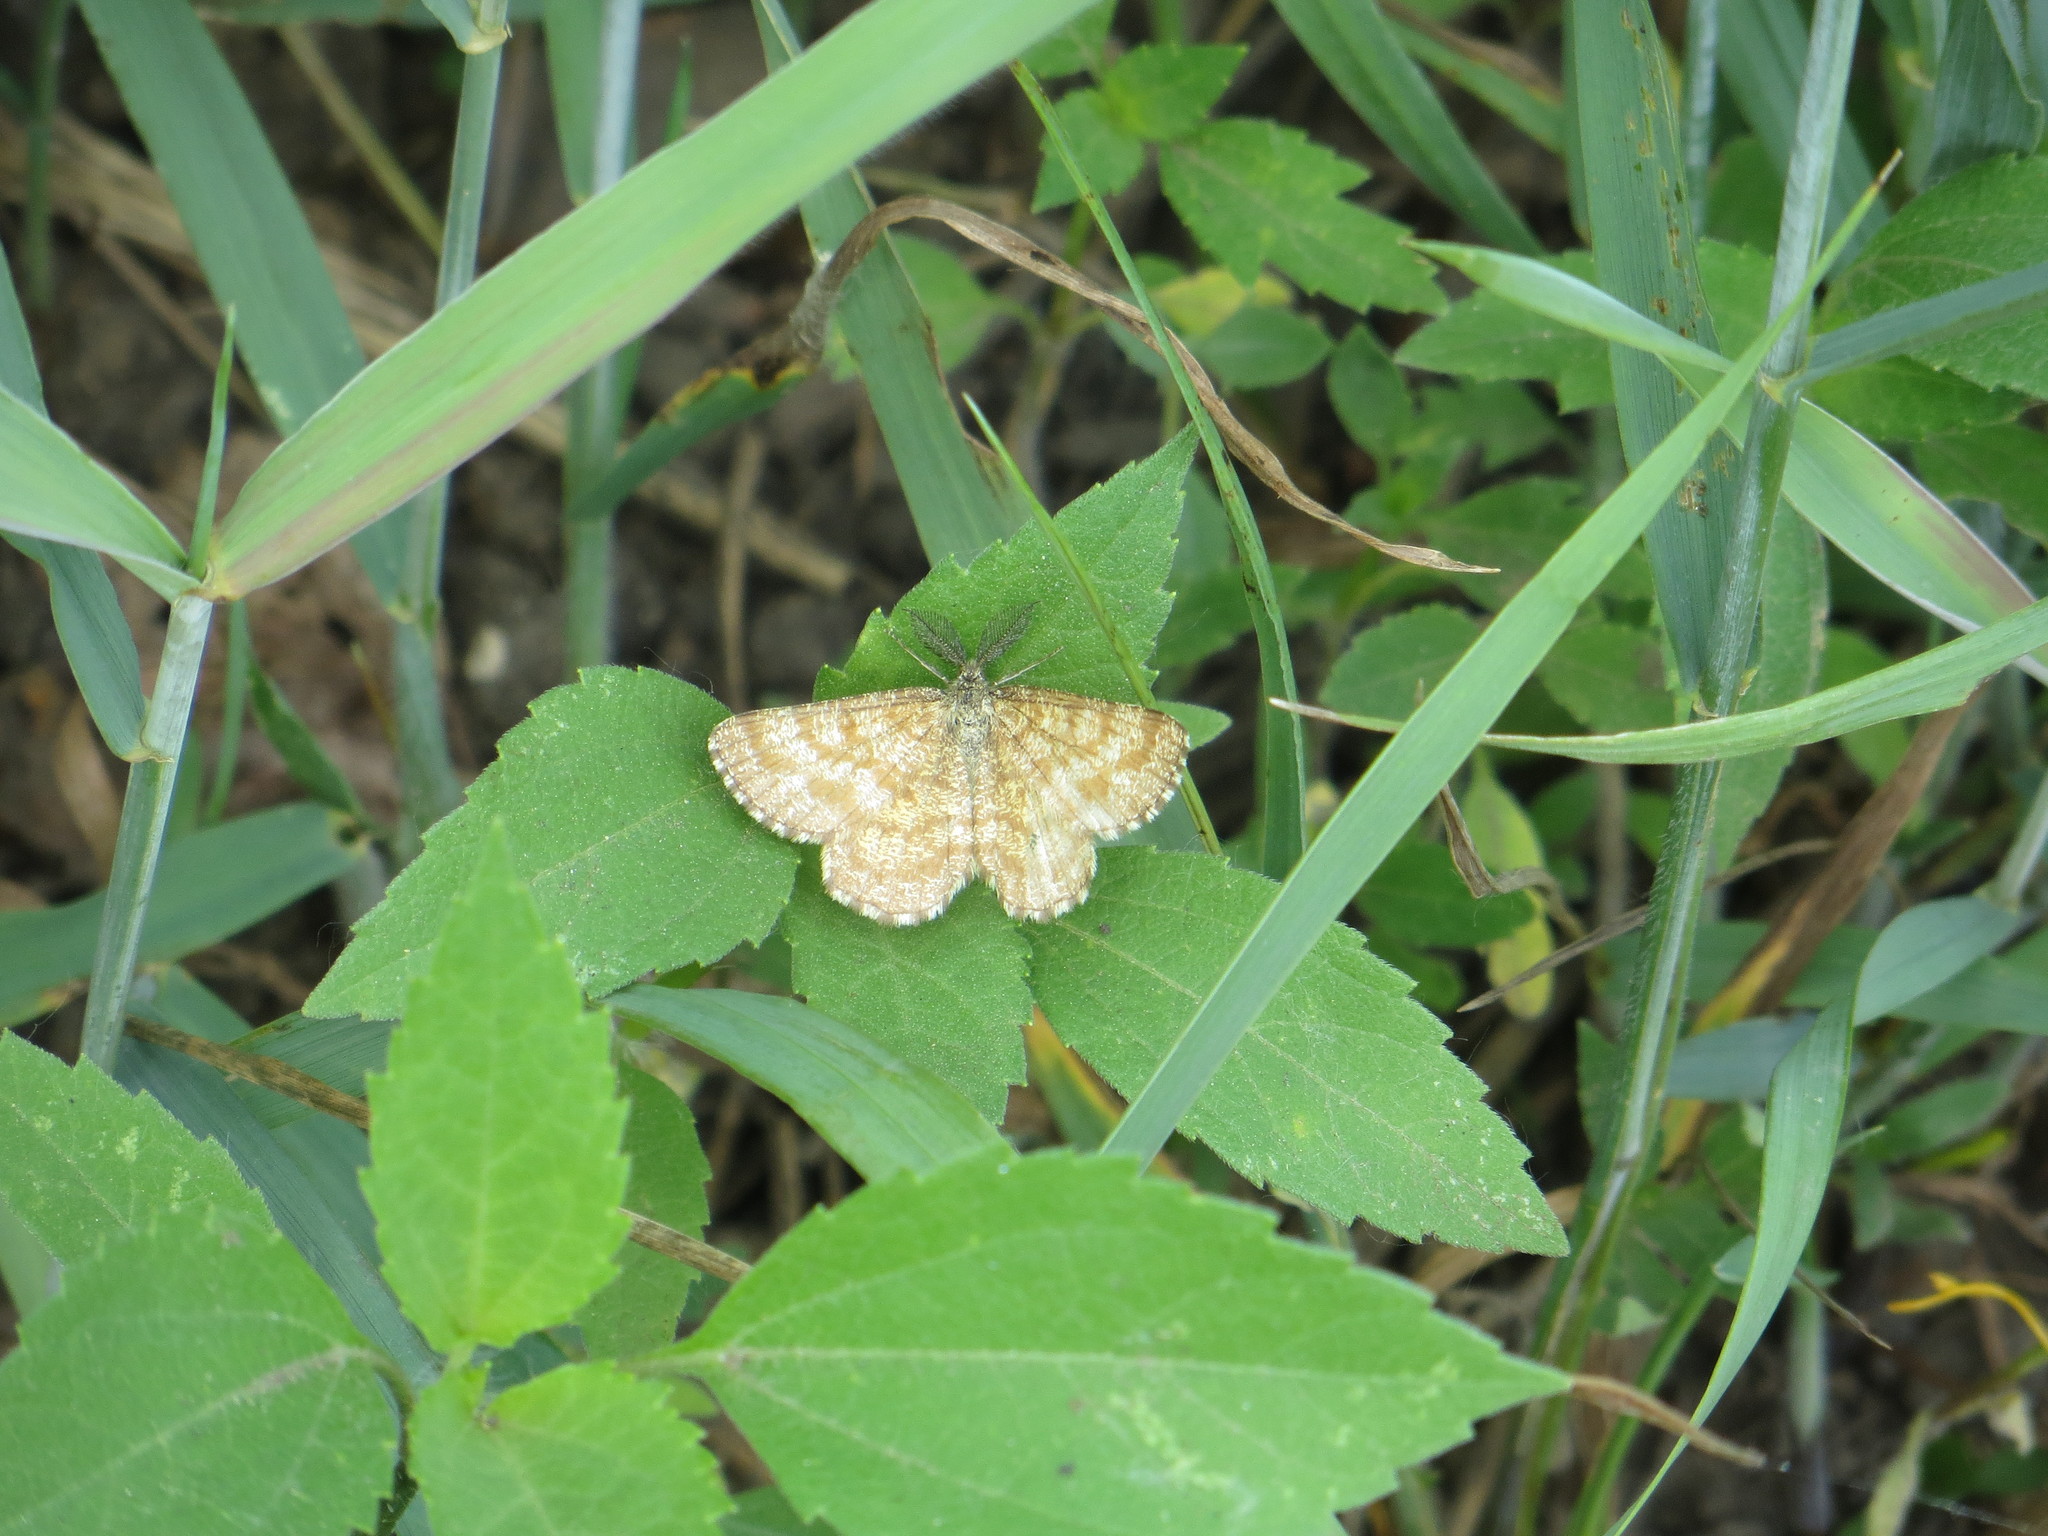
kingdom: Animalia
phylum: Arthropoda
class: Insecta
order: Lepidoptera
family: Geometridae
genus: Ematurga
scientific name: Ematurga atomaria
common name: Common heath
